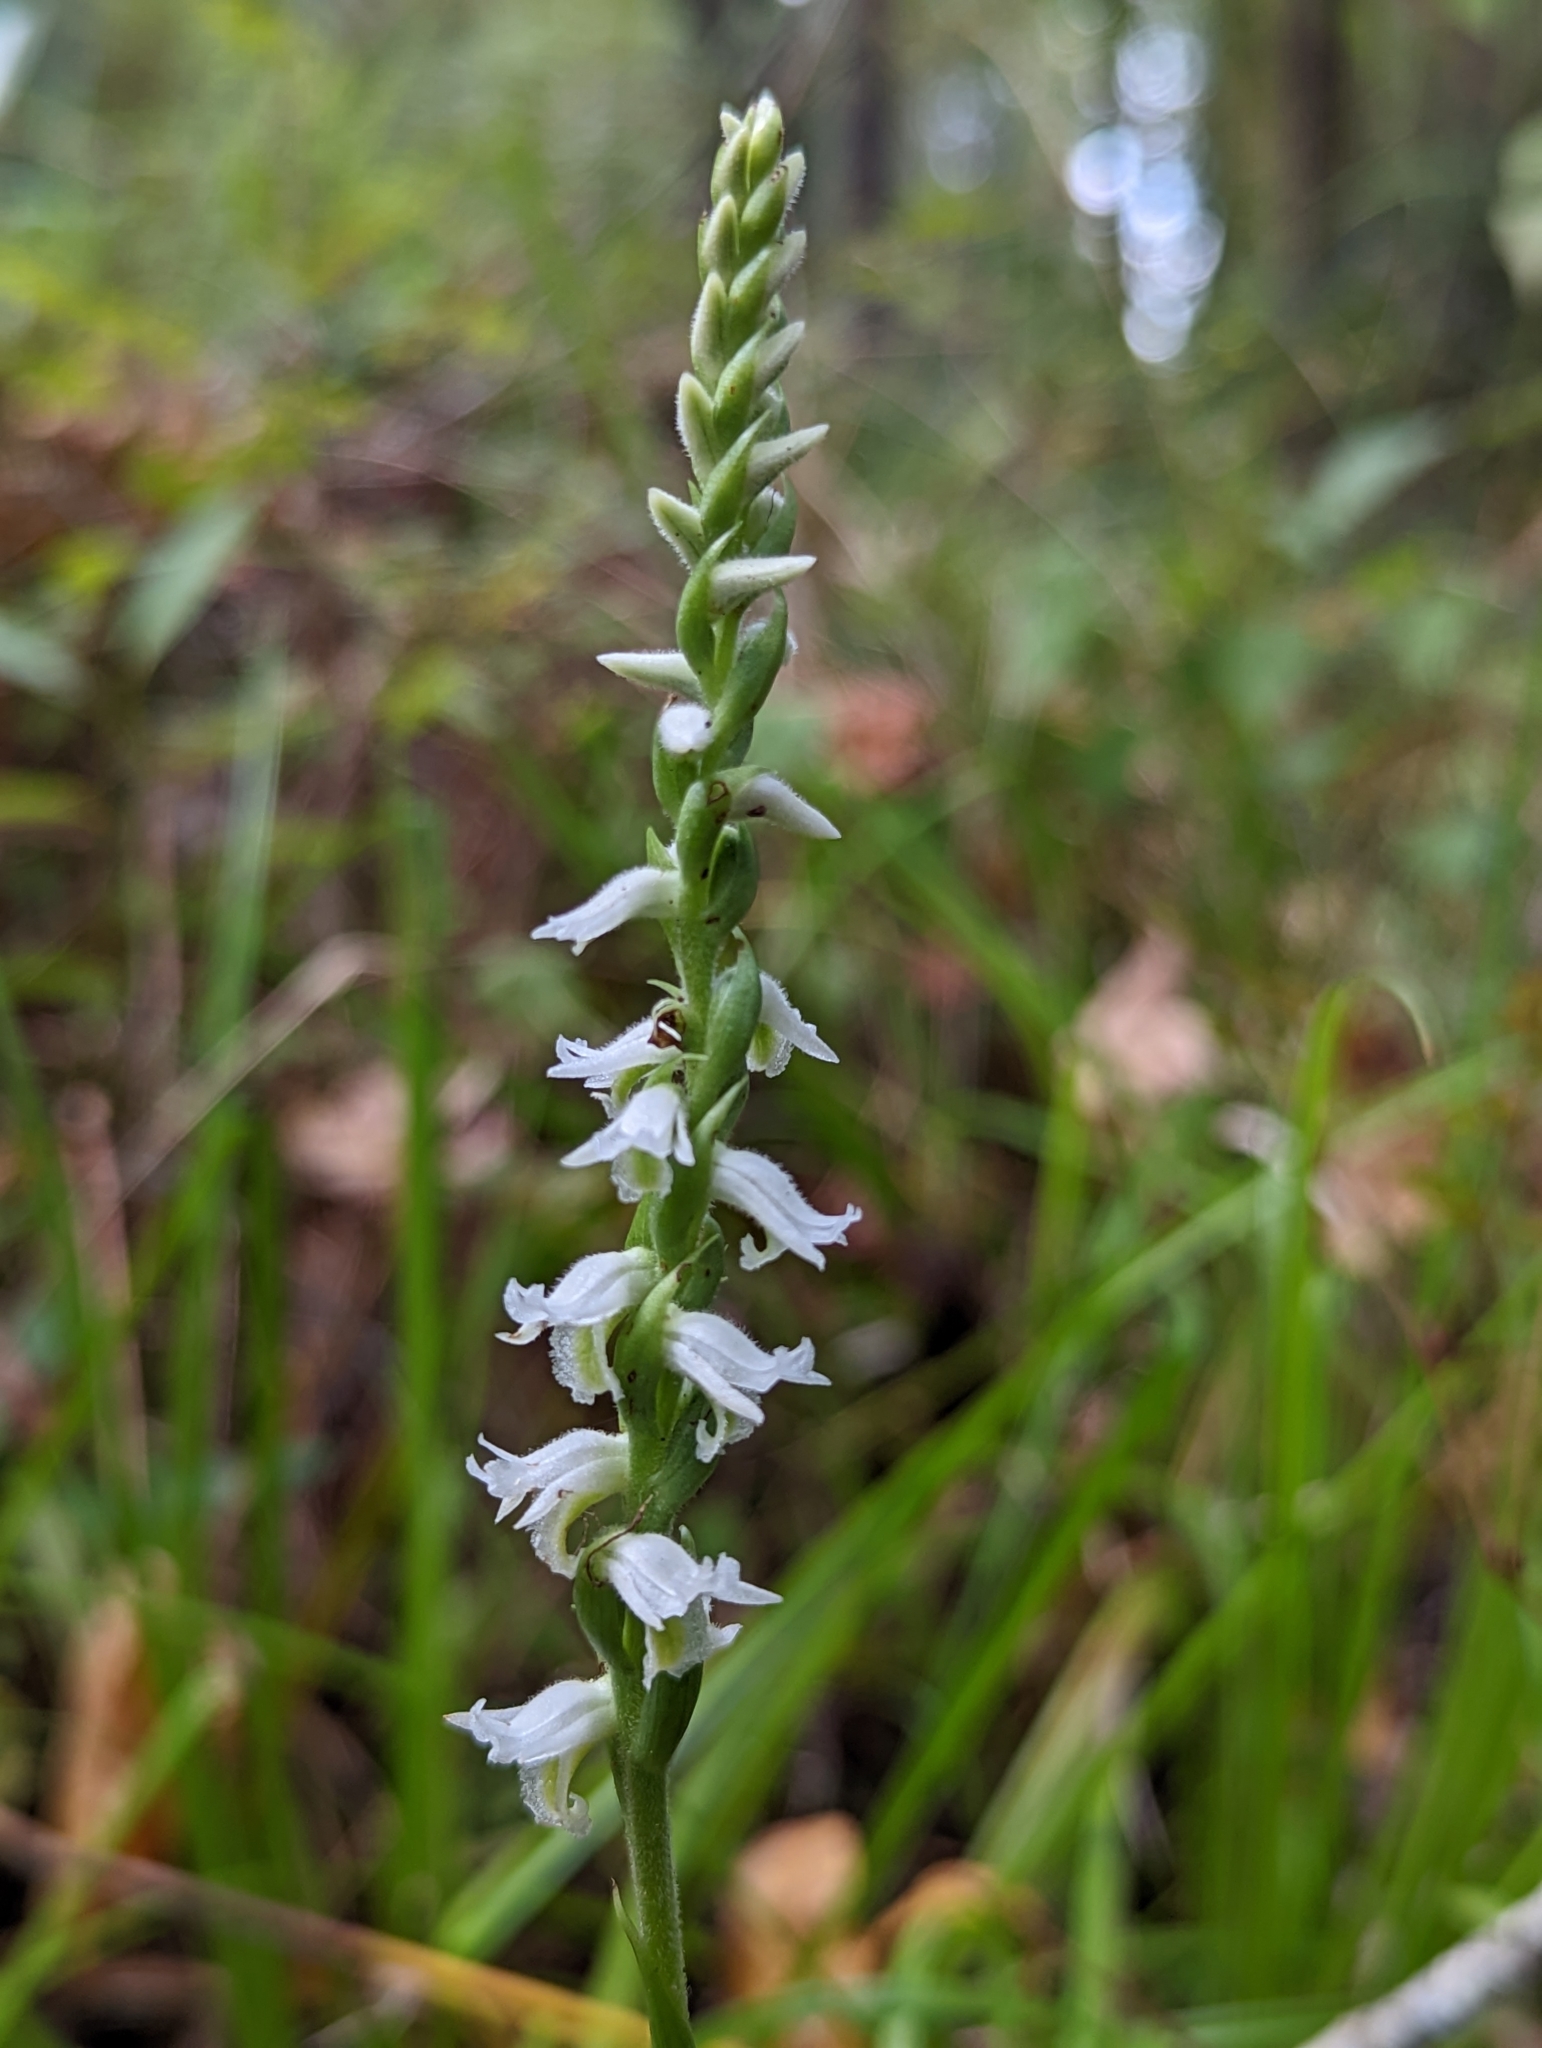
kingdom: Plantae
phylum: Tracheophyta
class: Liliopsida
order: Asparagales
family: Orchidaceae
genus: Spiranthes
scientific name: Spiranthes odorata
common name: Marsh ladies'-tresses
